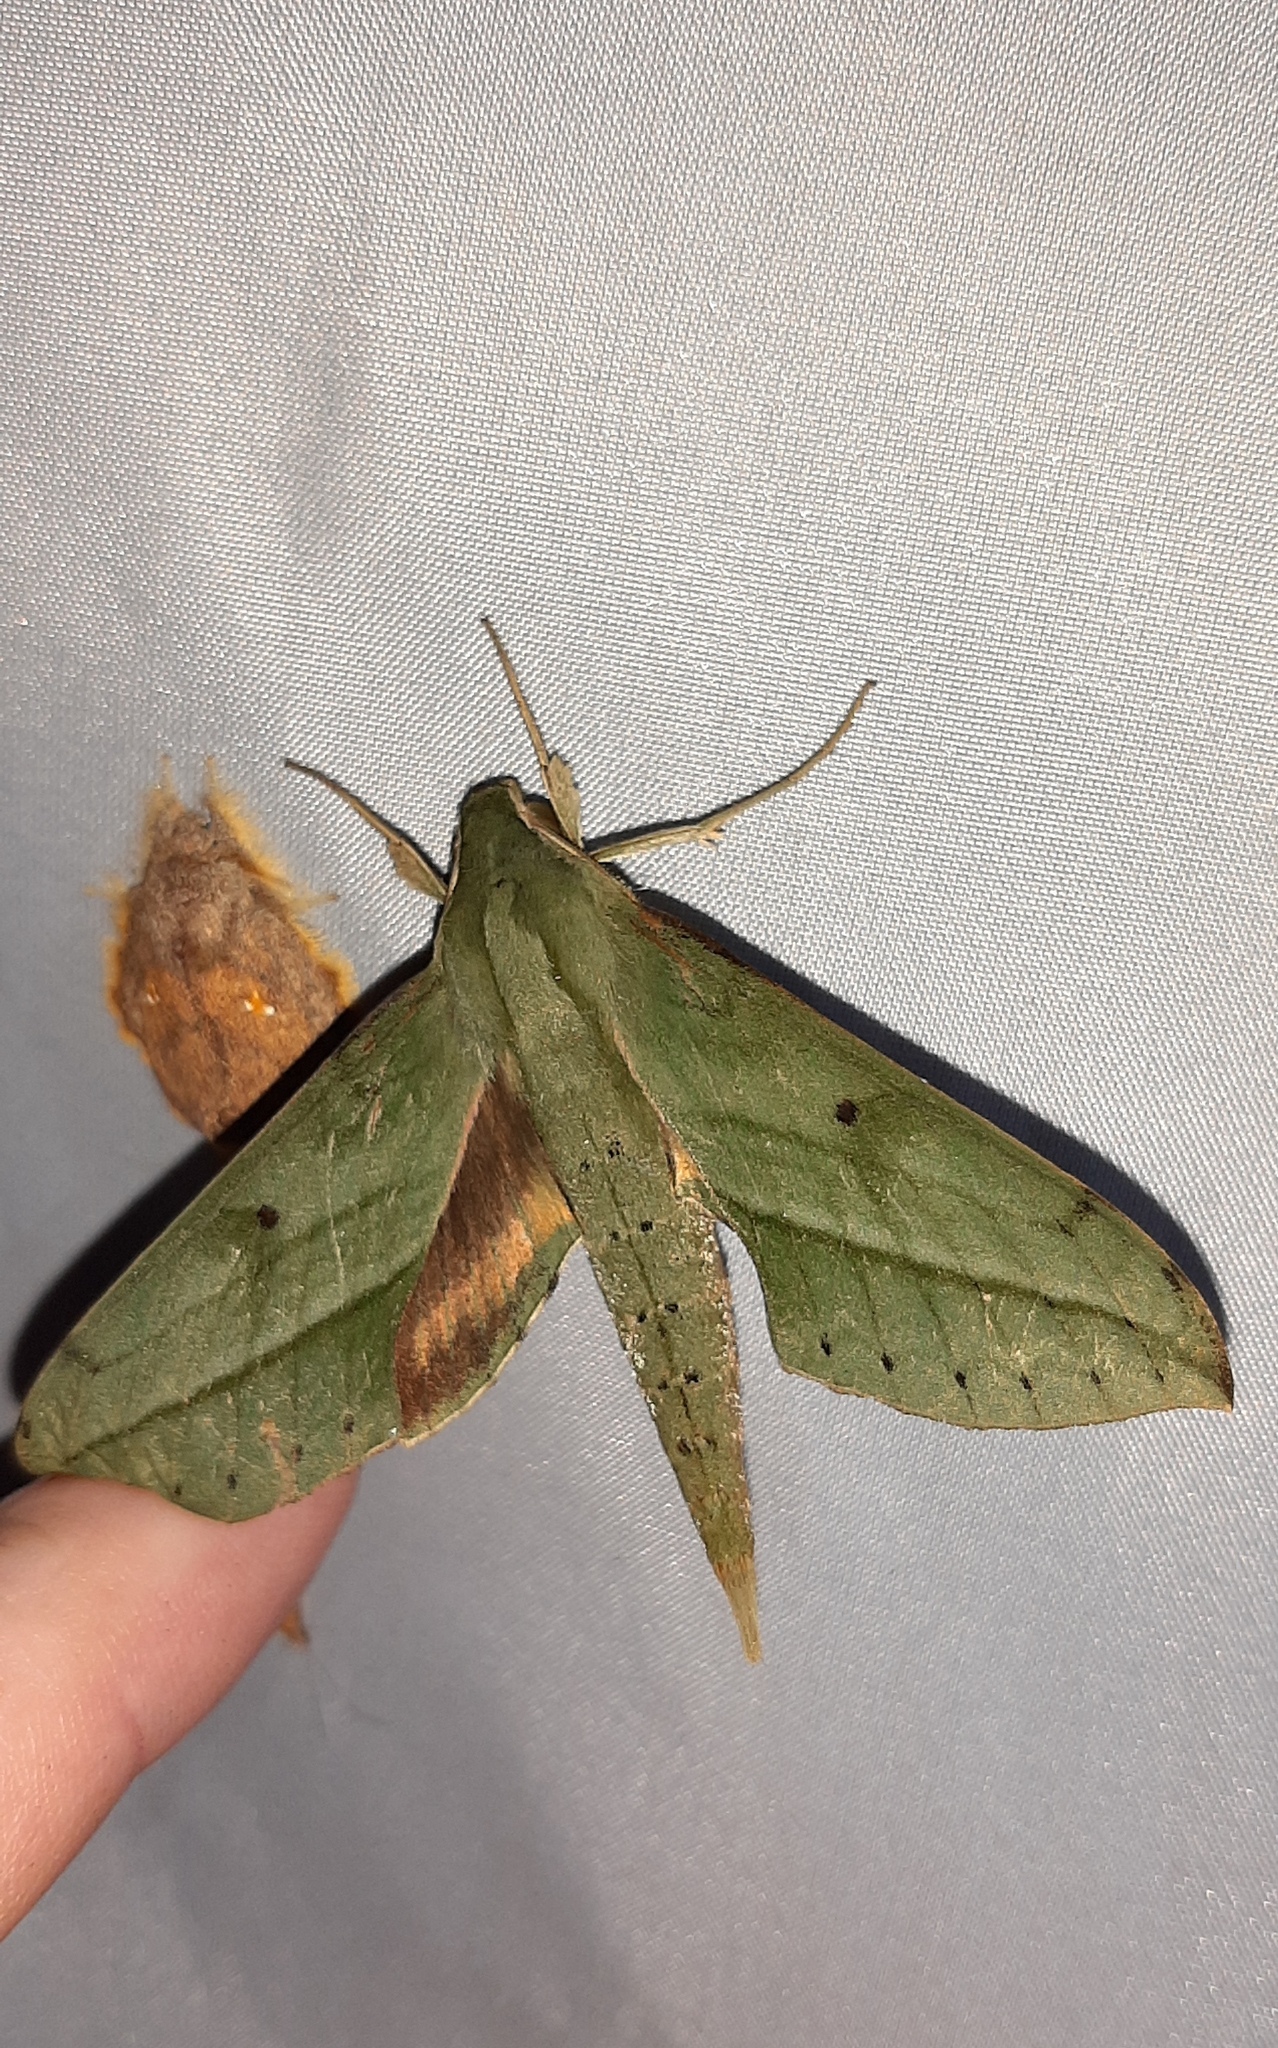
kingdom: Animalia
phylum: Arthropoda
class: Insecta
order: Lepidoptera
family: Sphingidae
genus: Xylophanes
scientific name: Xylophanes fassli
